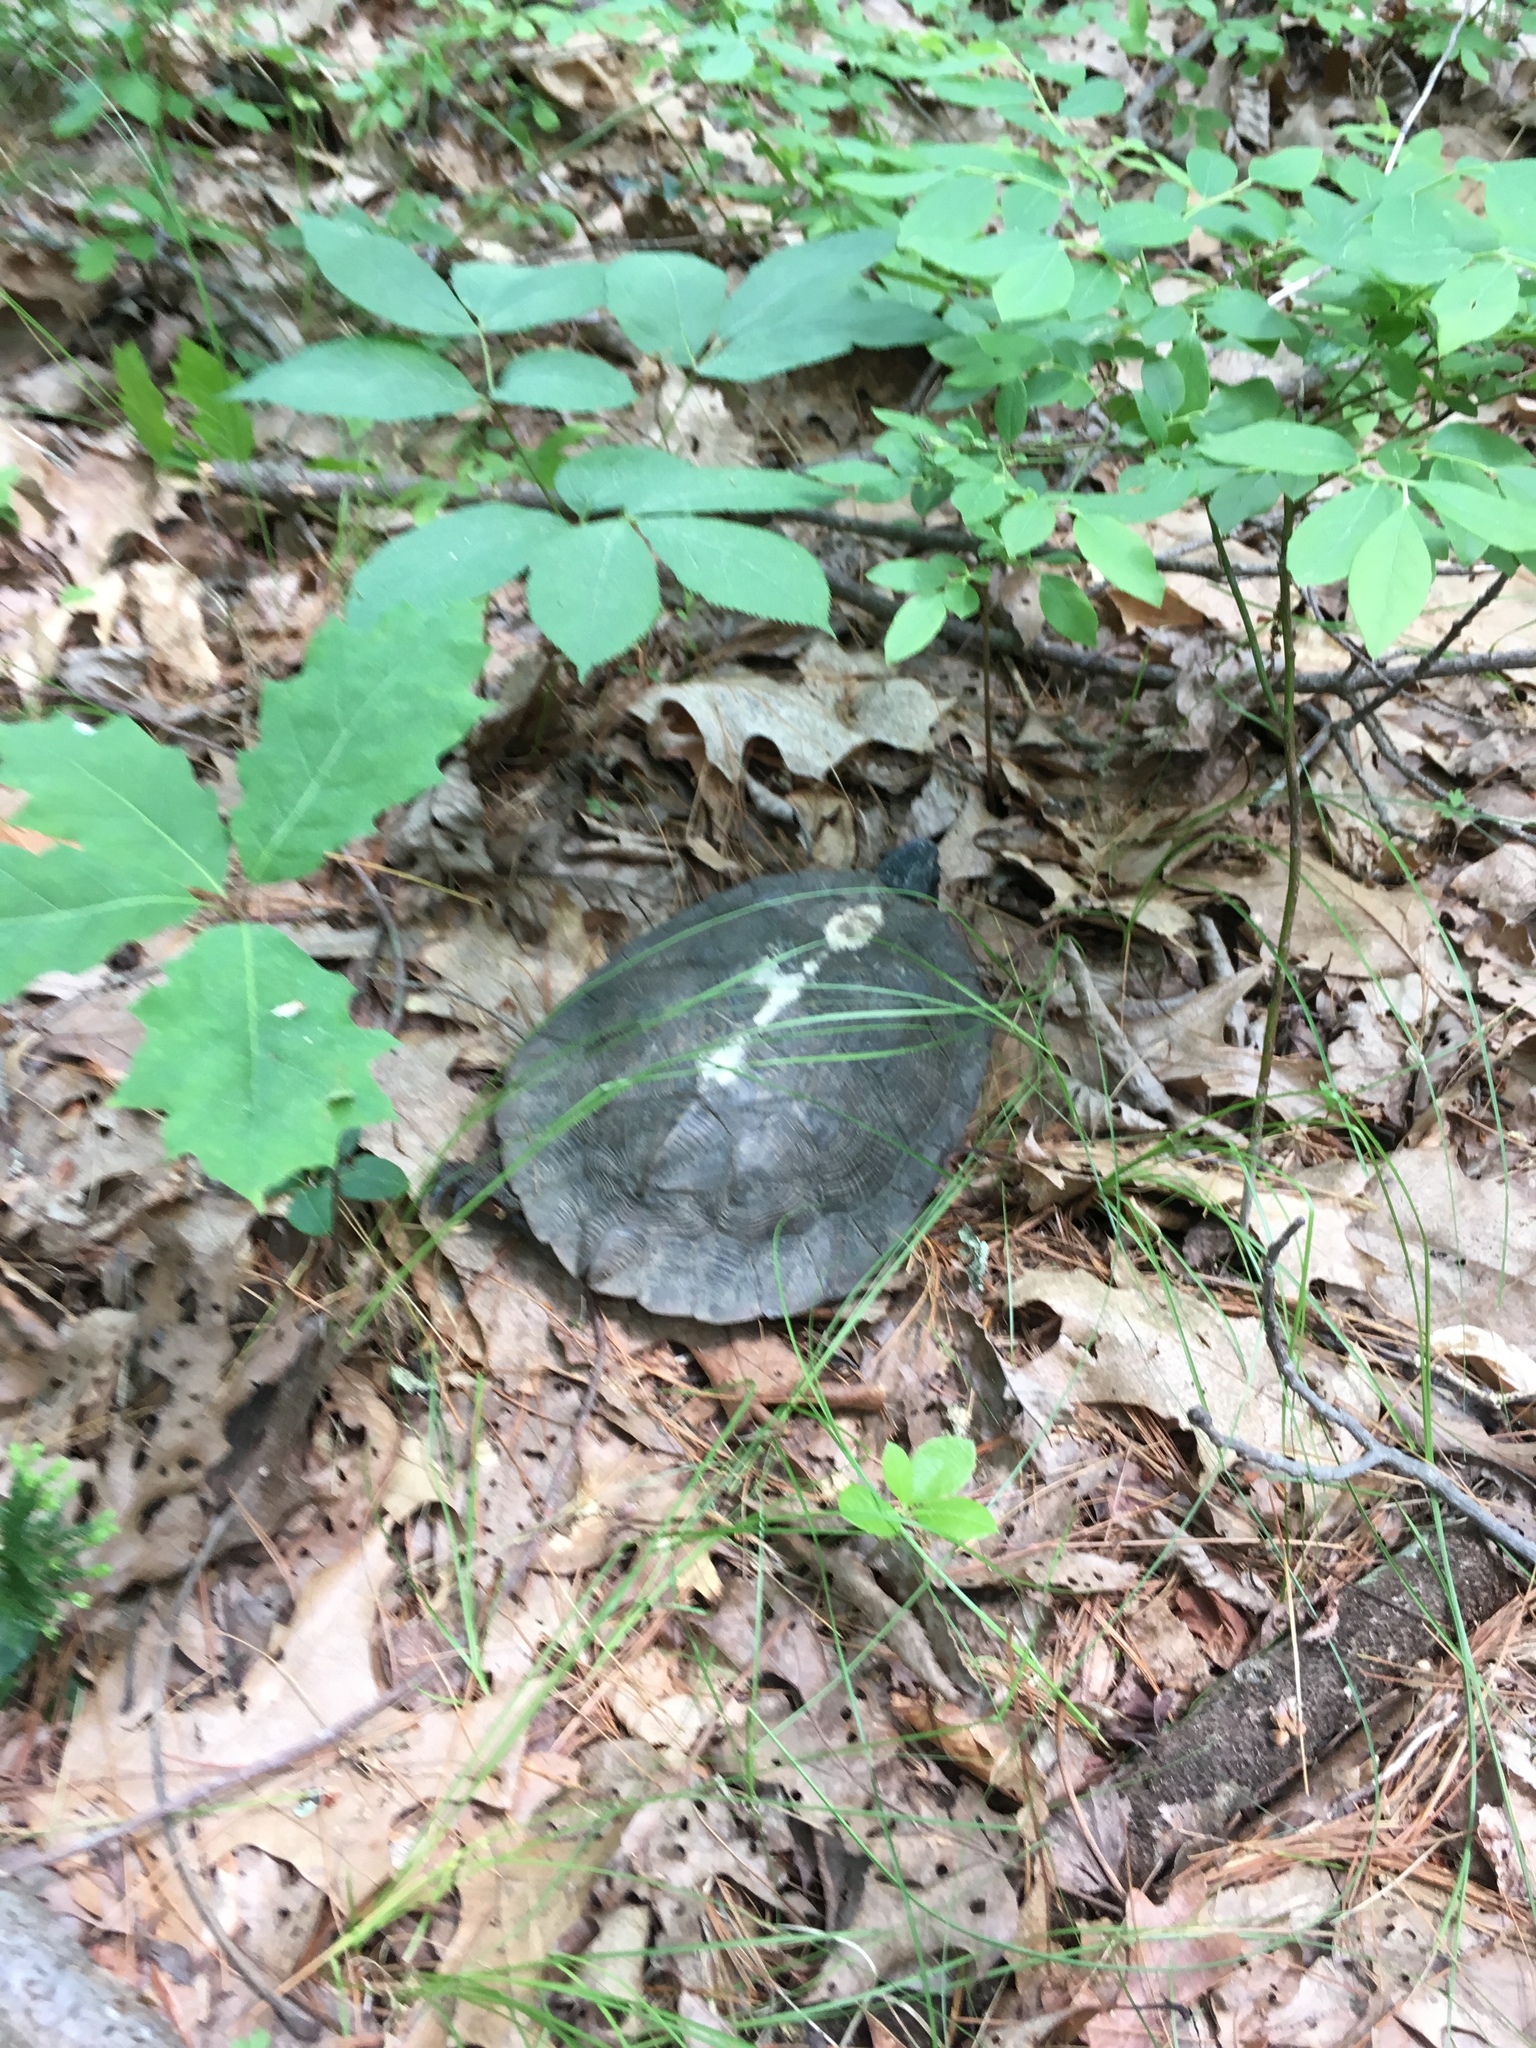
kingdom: Animalia
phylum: Chordata
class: Testudines
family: Emydidae
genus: Glyptemys
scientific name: Glyptemys insculpta
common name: Wood turtle
